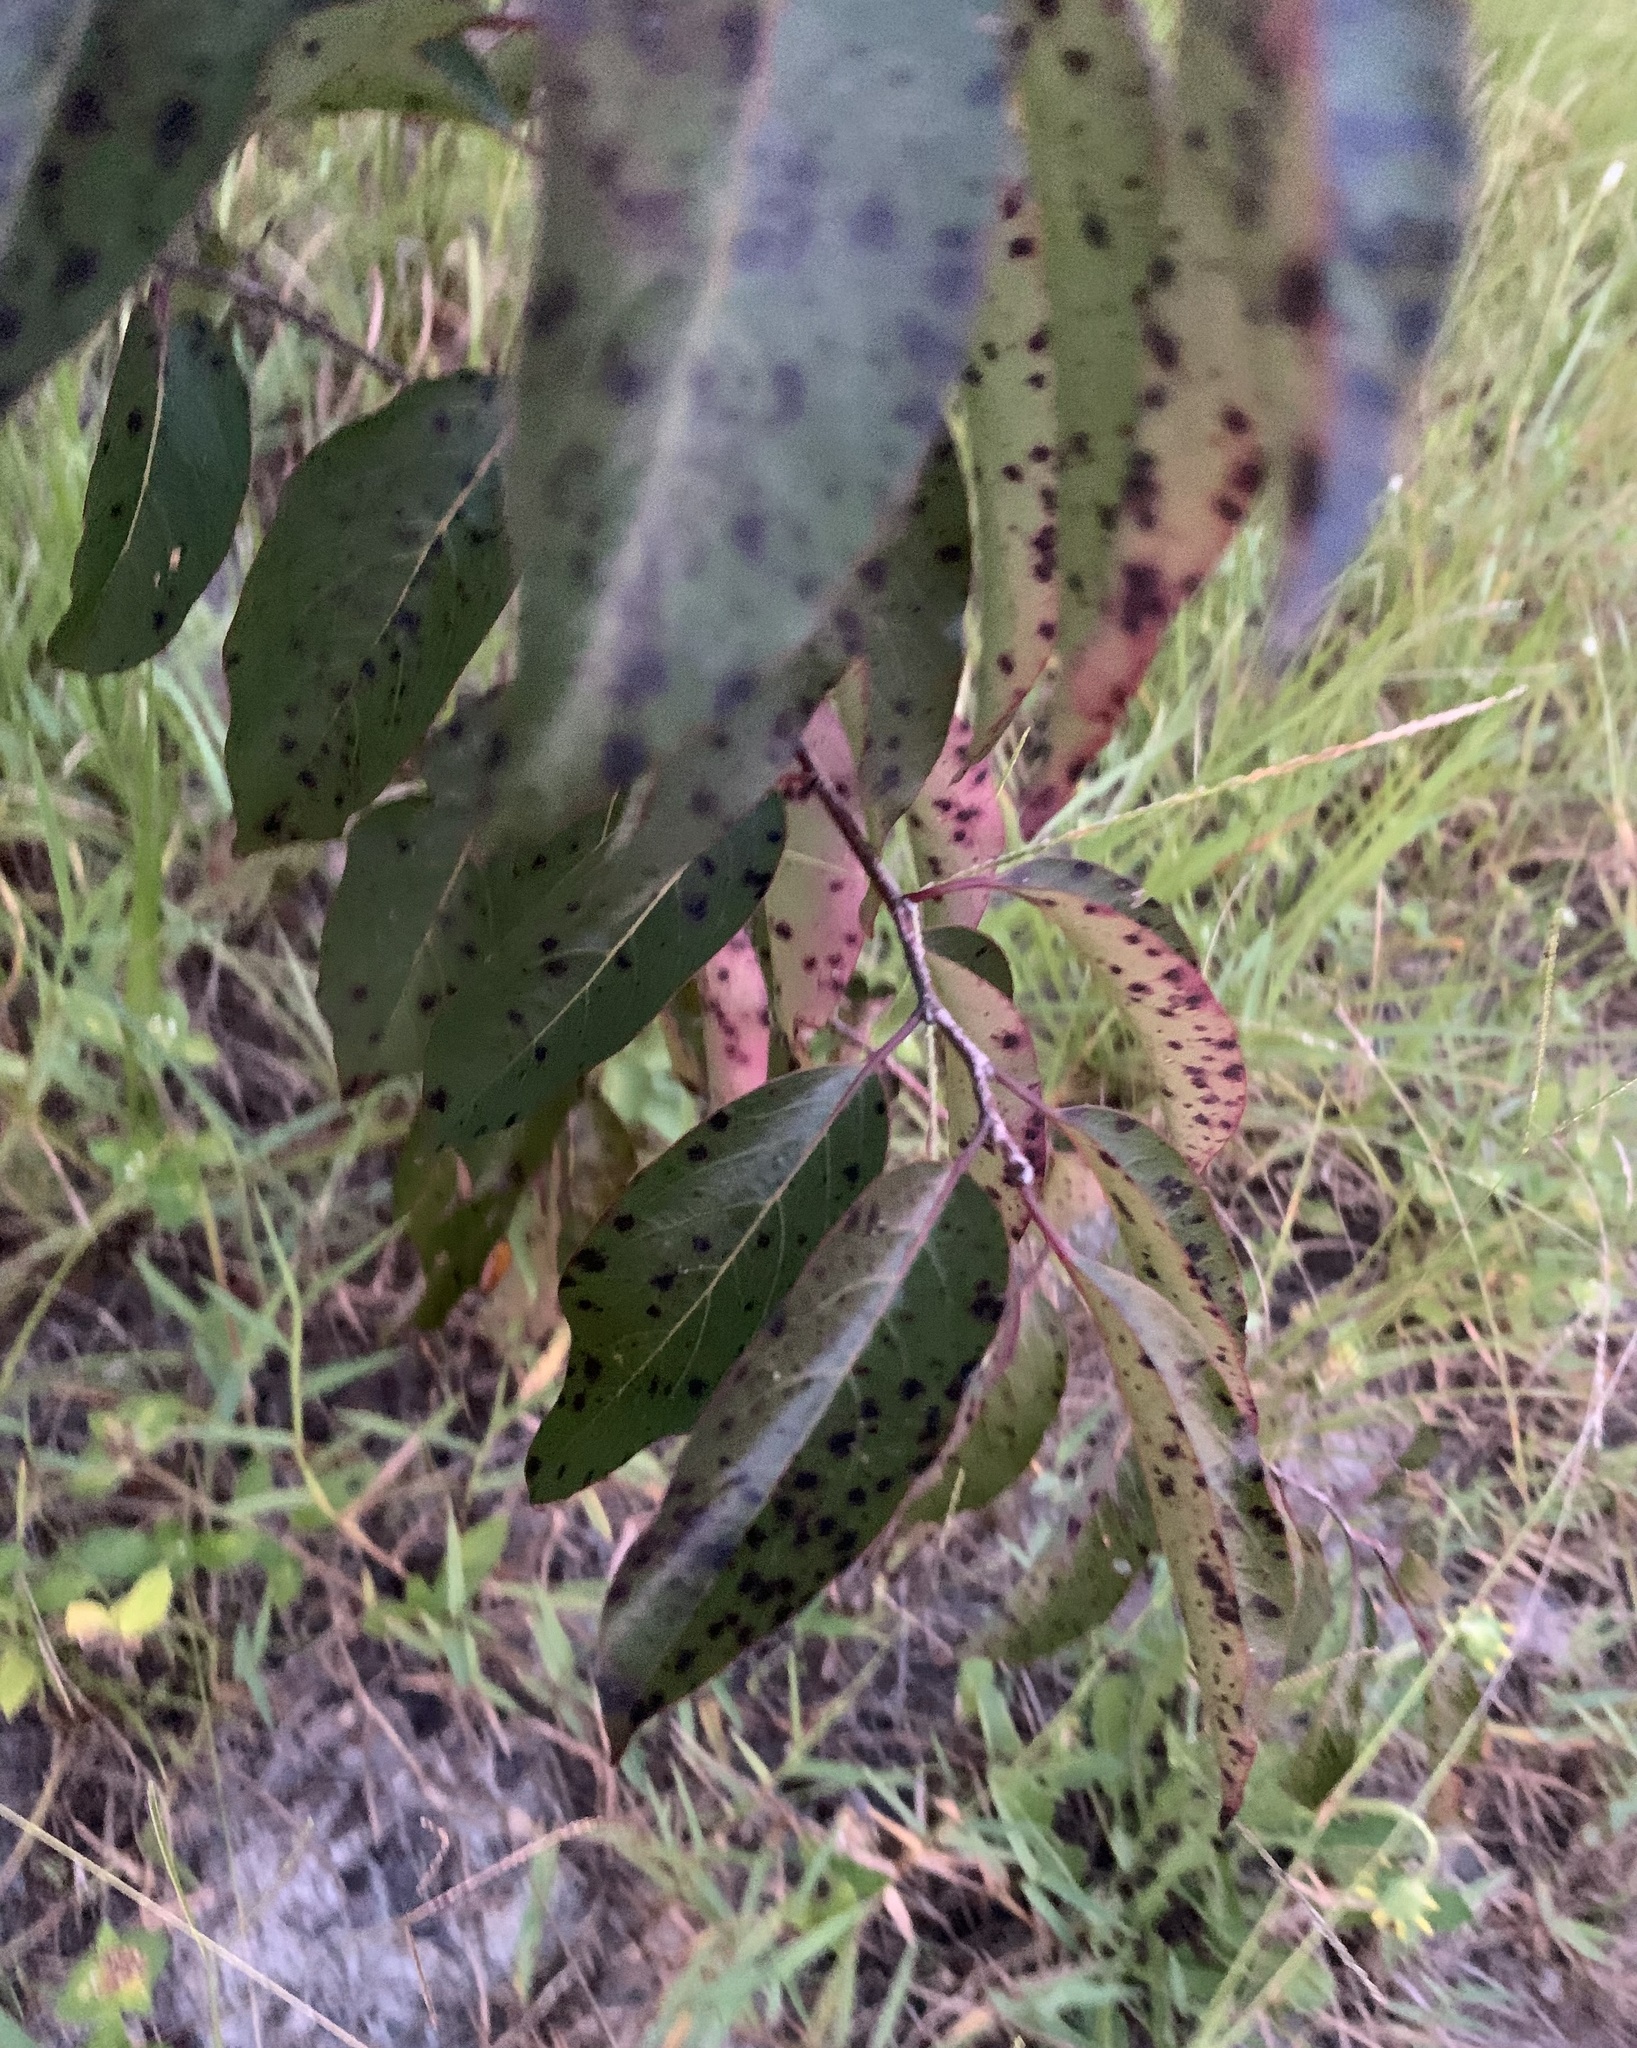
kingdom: Plantae
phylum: Tracheophyta
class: Magnoliopsida
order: Ericales
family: Ebenaceae
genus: Diospyros
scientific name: Diospyros virginiana
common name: Persimmon
